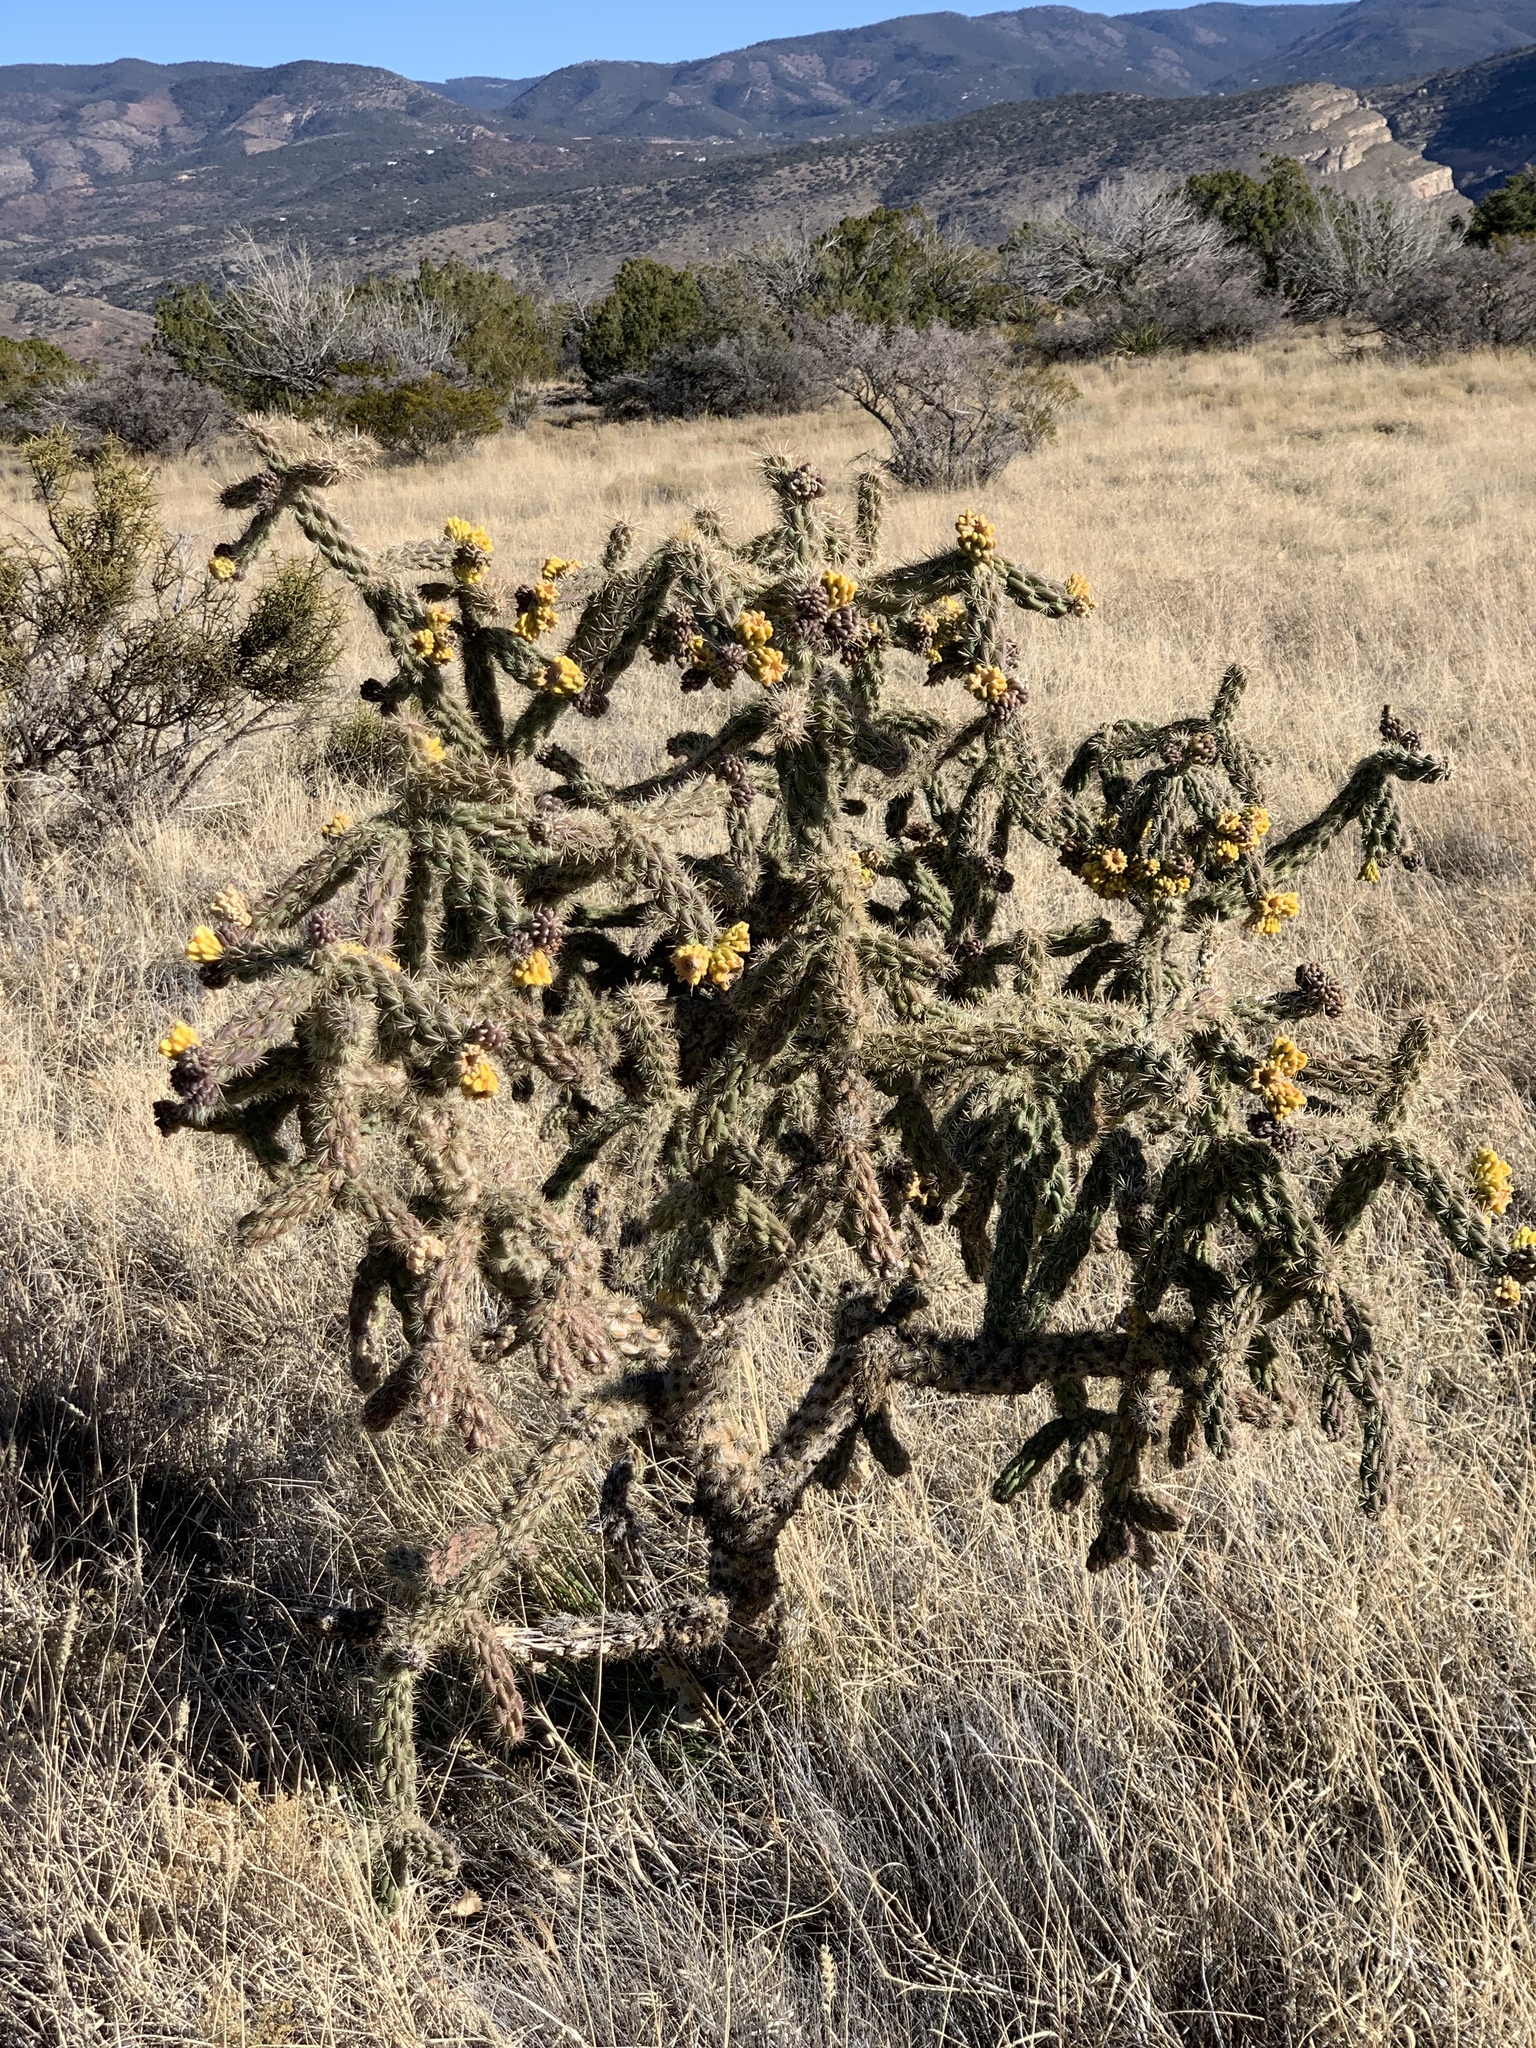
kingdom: Plantae
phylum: Tracheophyta
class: Magnoliopsida
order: Caryophyllales
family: Cactaceae
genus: Cylindropuntia
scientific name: Cylindropuntia imbricata
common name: Candelabrum cactus
